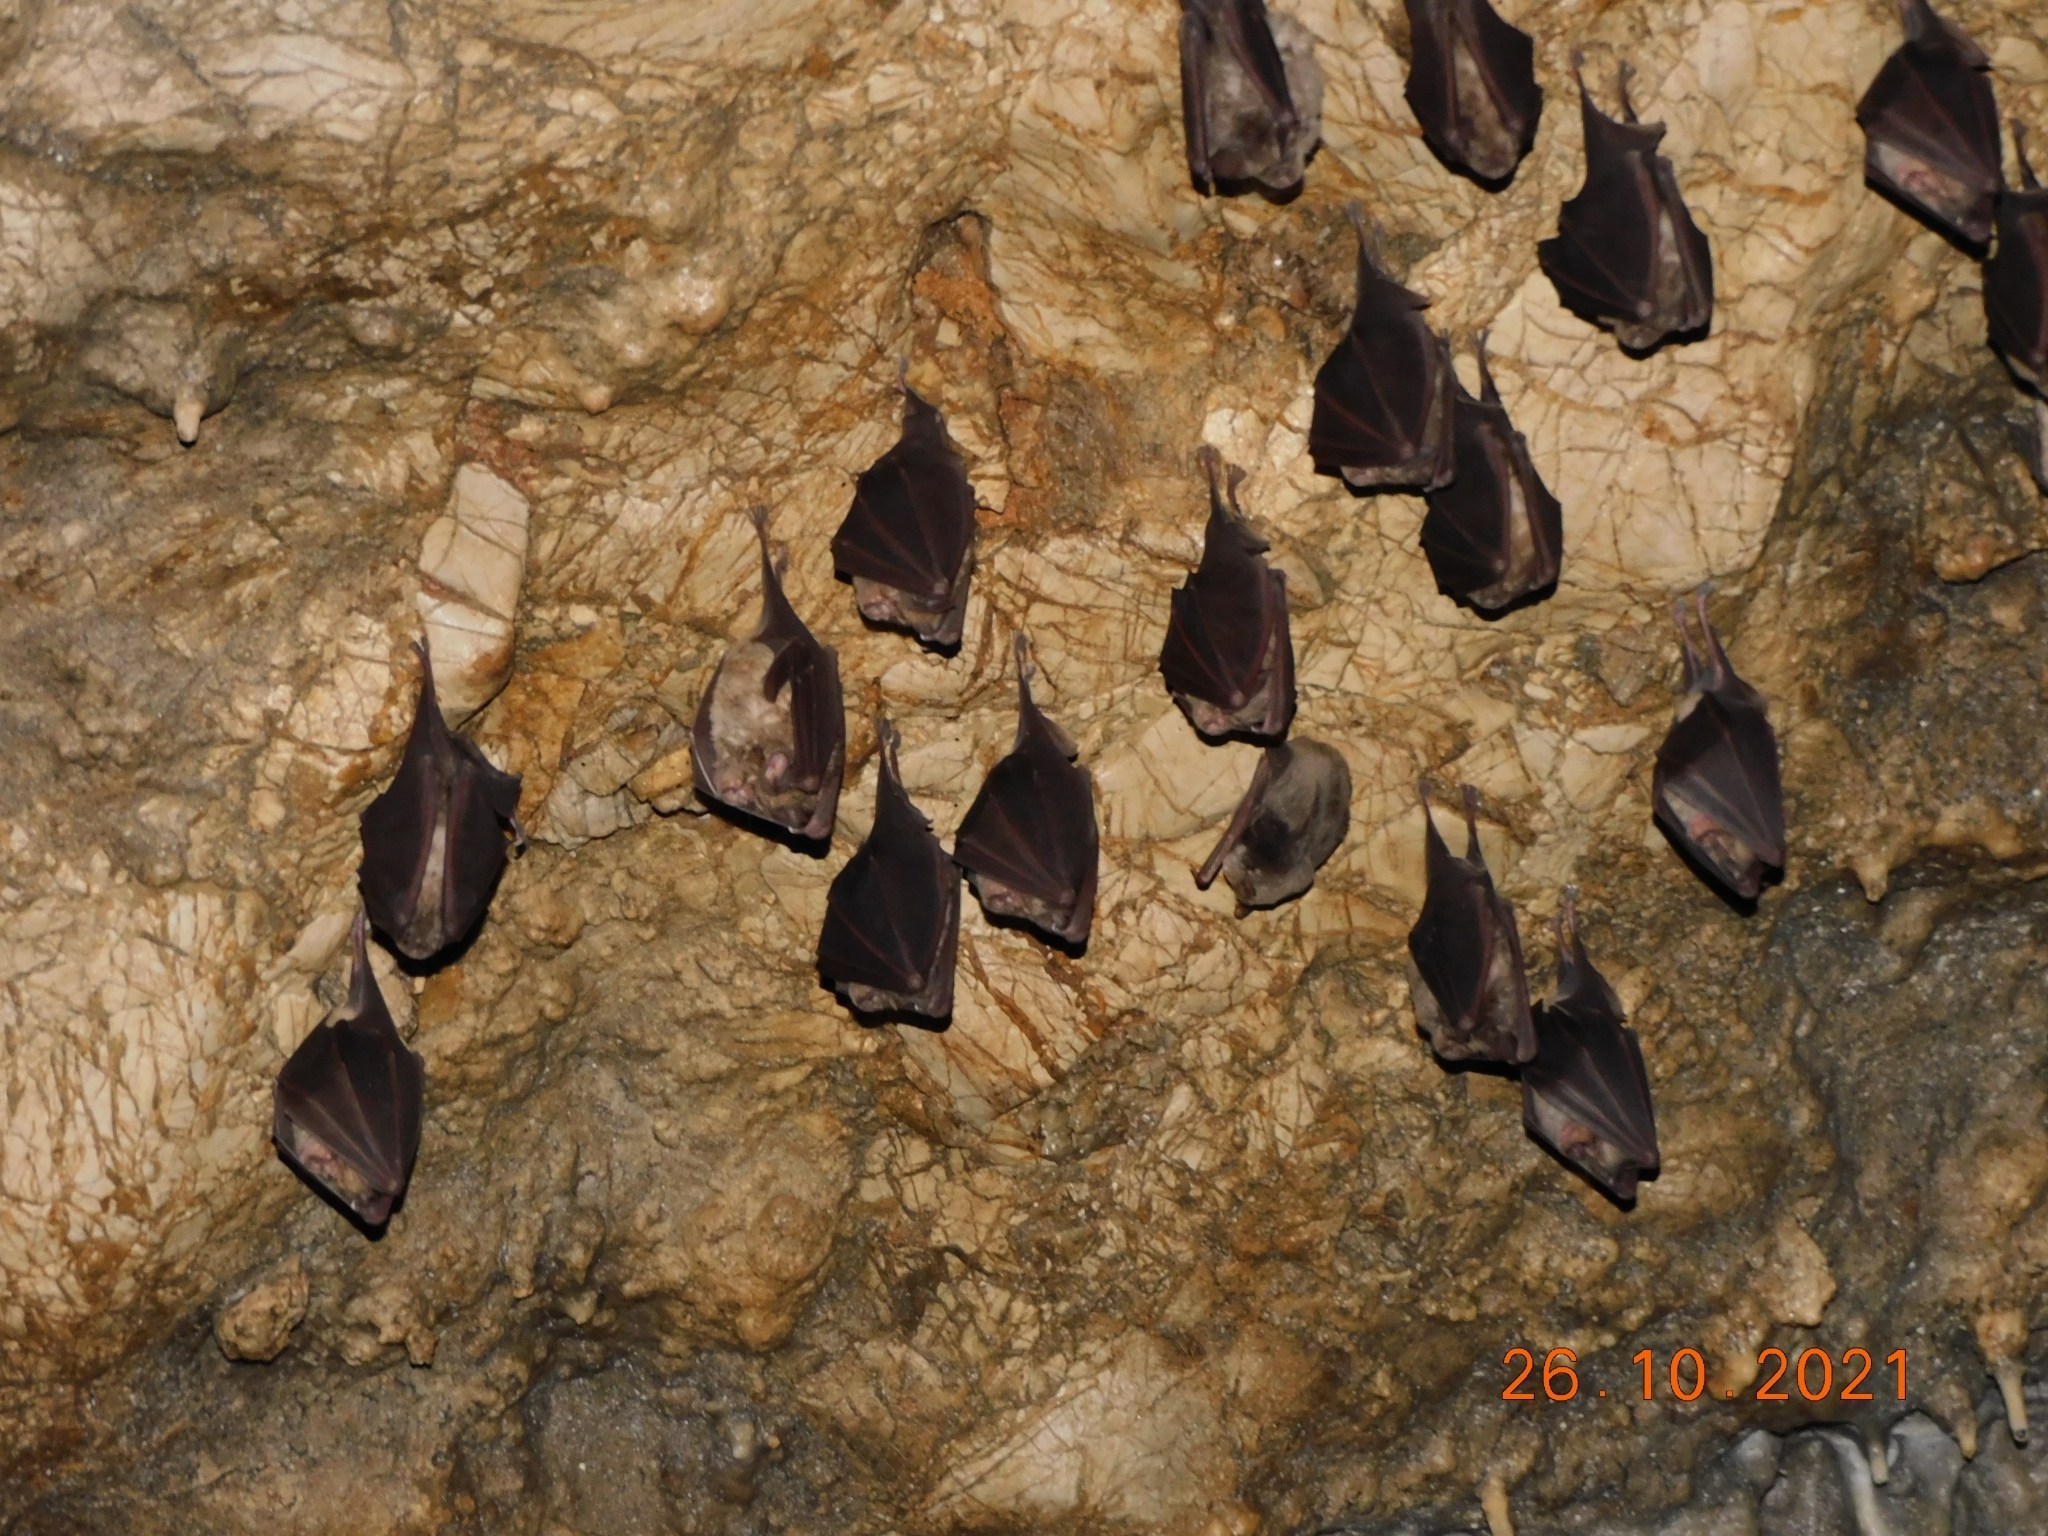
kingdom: Animalia
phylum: Chordata
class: Mammalia
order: Chiroptera
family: Rhinolophidae
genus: Rhinolophus
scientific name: Rhinolophus ferrumequinum
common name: Greater horseshoe bat
